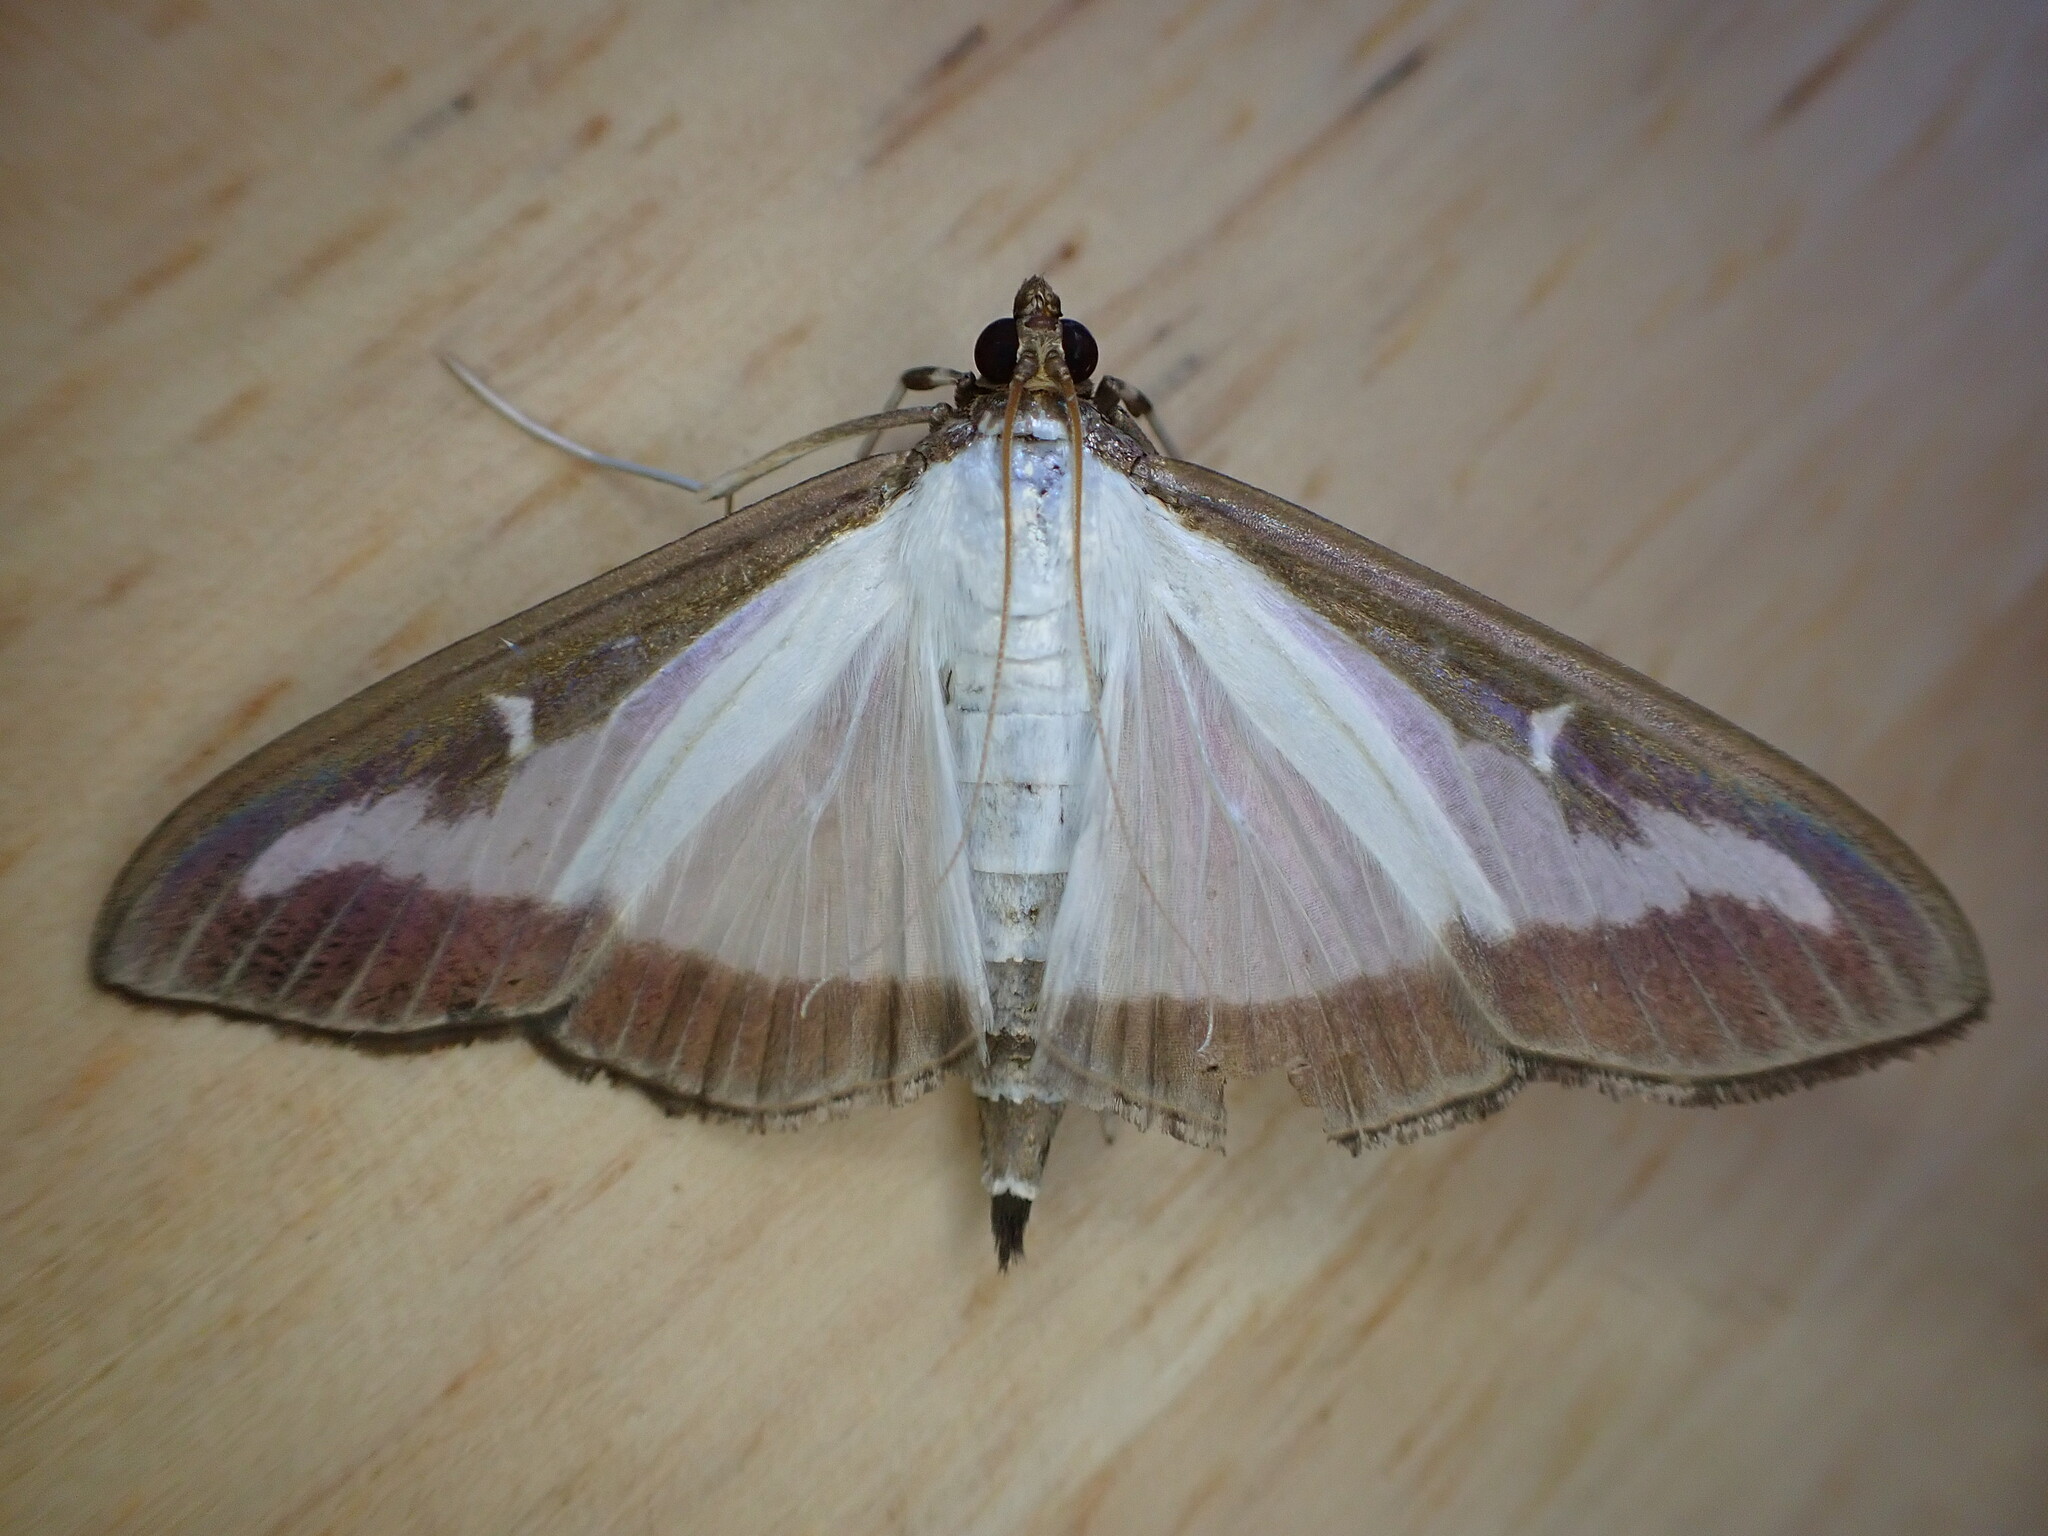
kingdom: Animalia
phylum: Arthropoda
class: Insecta
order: Lepidoptera
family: Crambidae
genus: Cydalima
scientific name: Cydalima perspectalis
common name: Box tree moth
